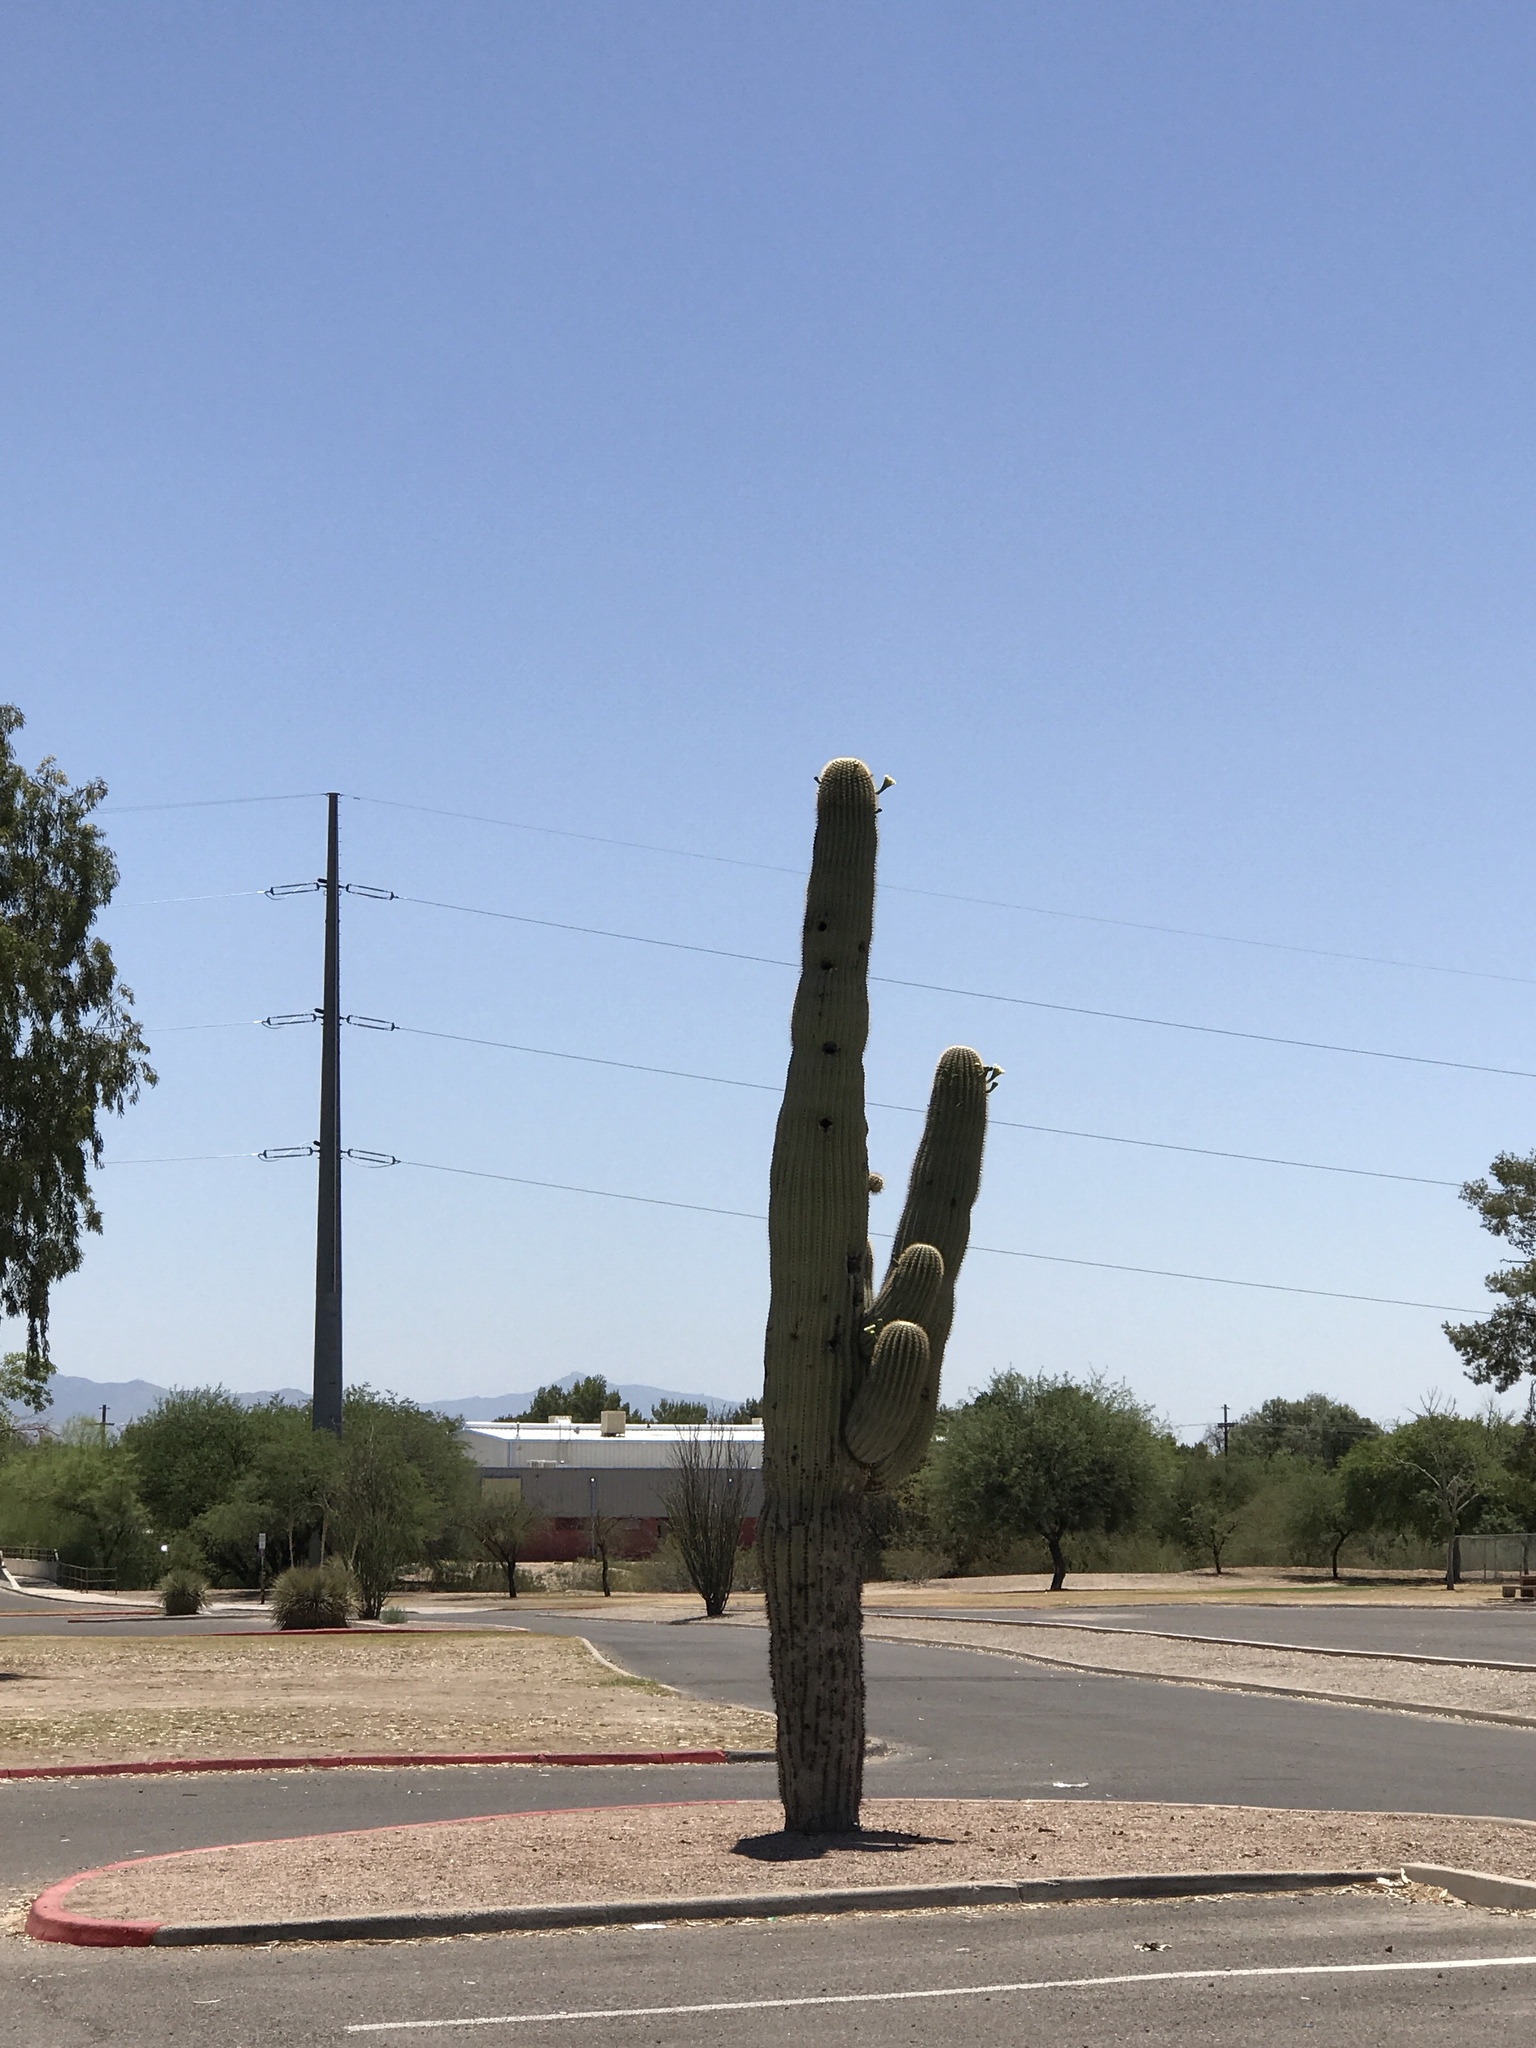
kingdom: Plantae
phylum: Tracheophyta
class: Magnoliopsida
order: Caryophyllales
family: Cactaceae
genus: Carnegiea
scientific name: Carnegiea gigantea
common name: Saguaro
